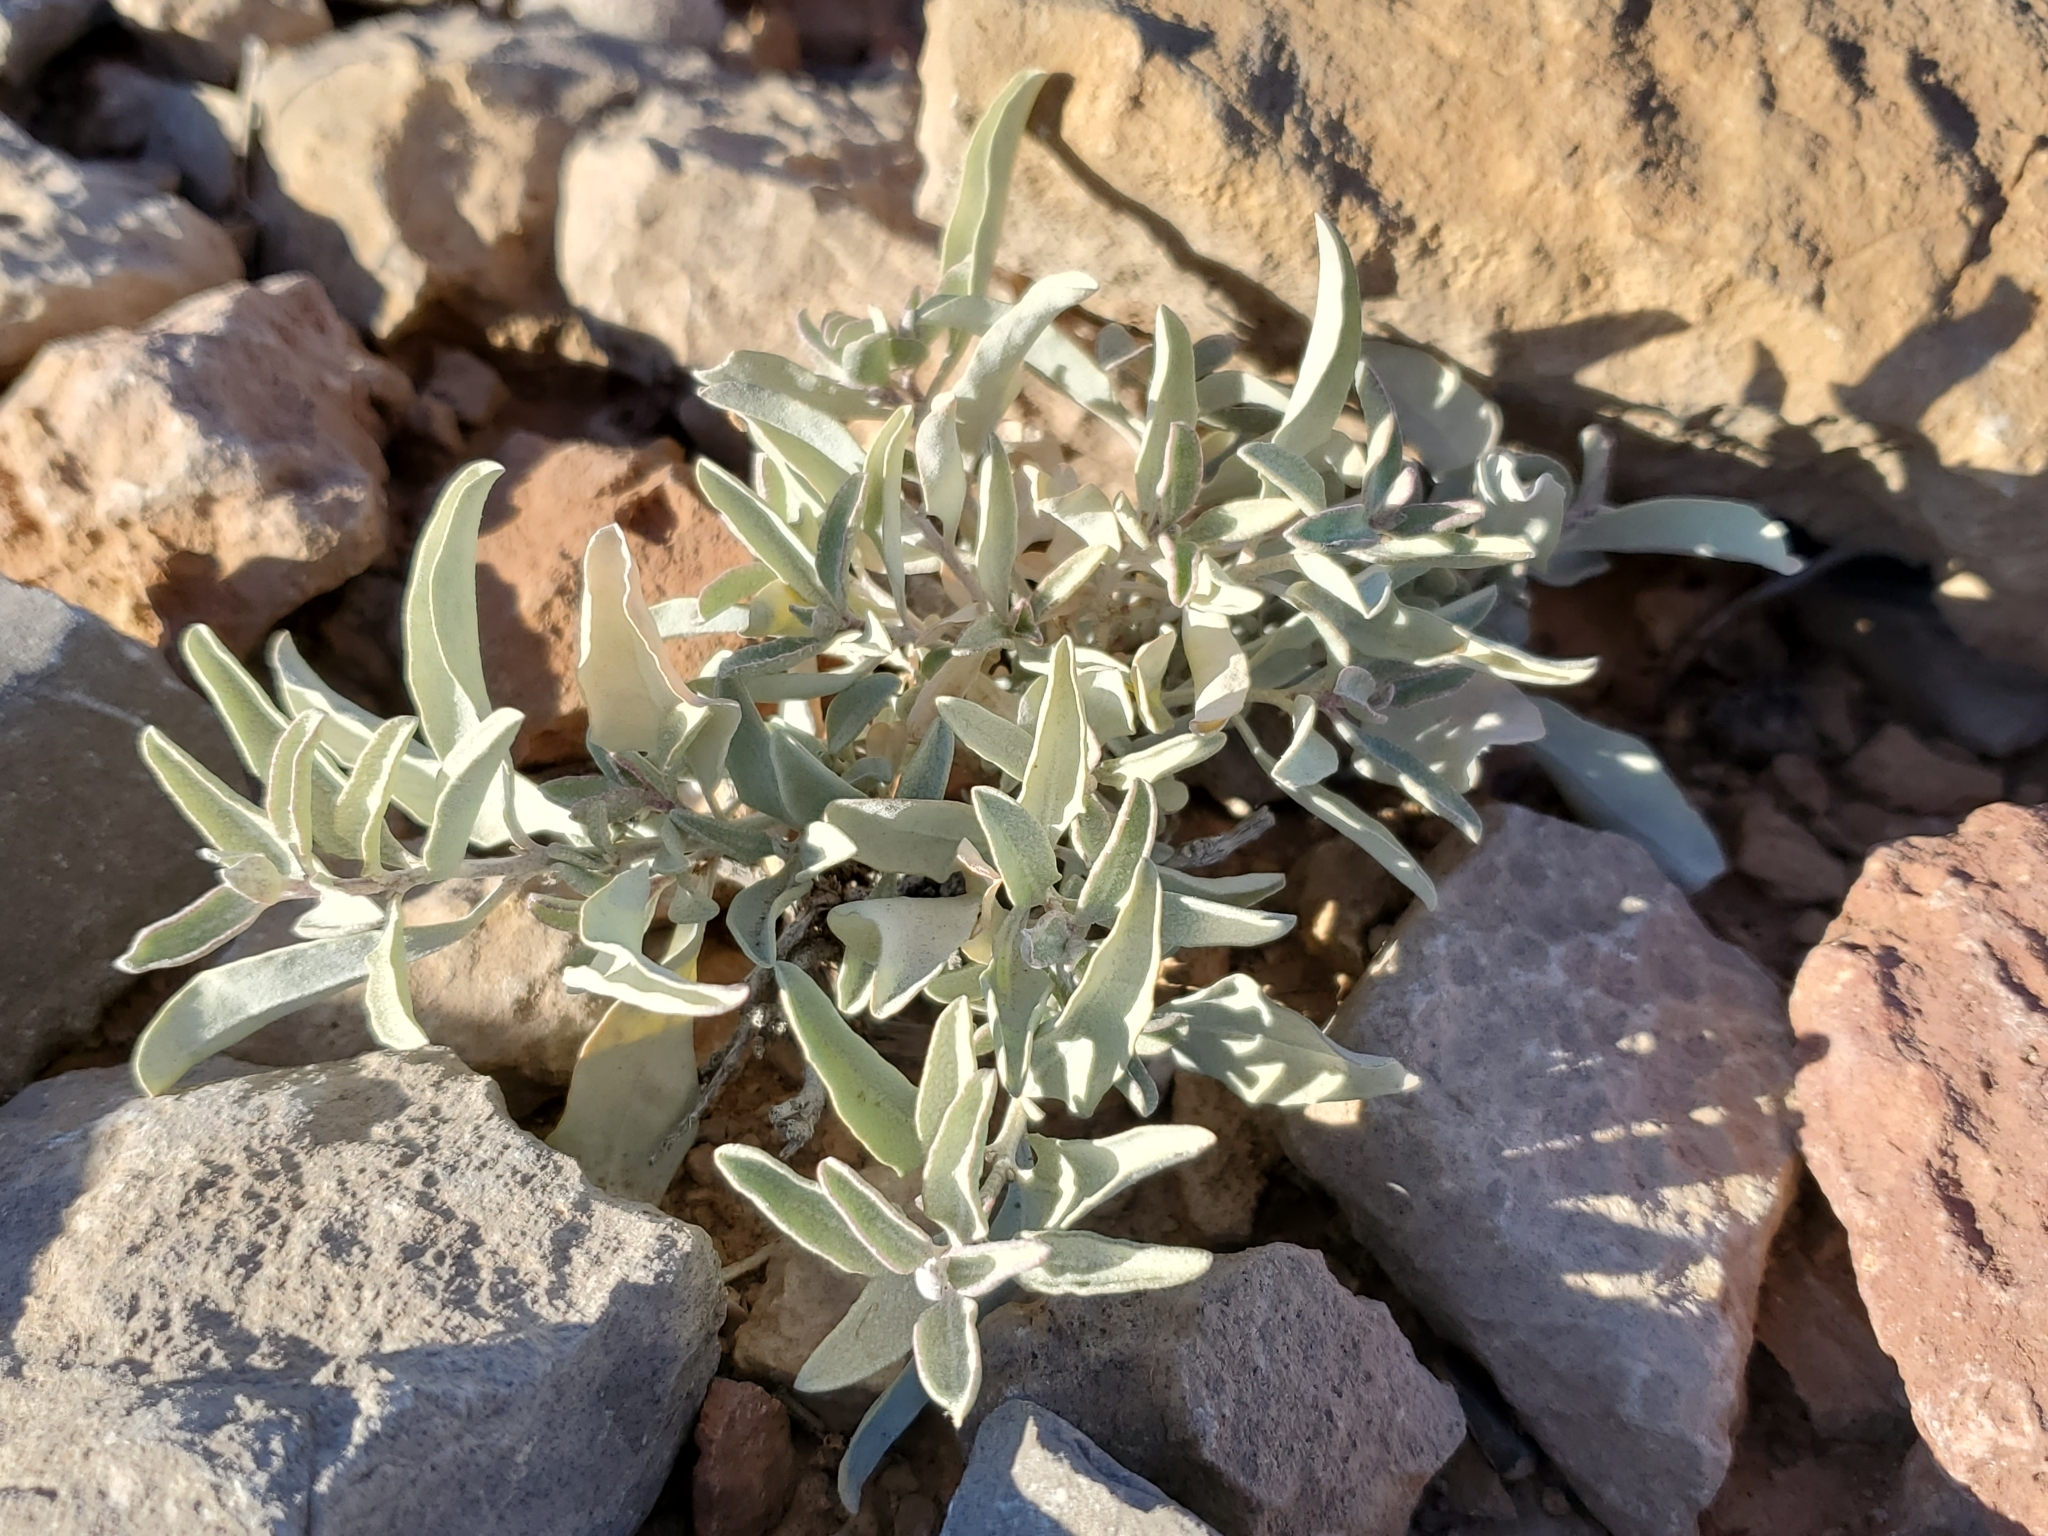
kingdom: Plantae
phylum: Tracheophyta
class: Magnoliopsida
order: Caryophyllales
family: Amaranthaceae
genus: Atriplex
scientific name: Atriplex elegans
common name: Wheelscale orach
